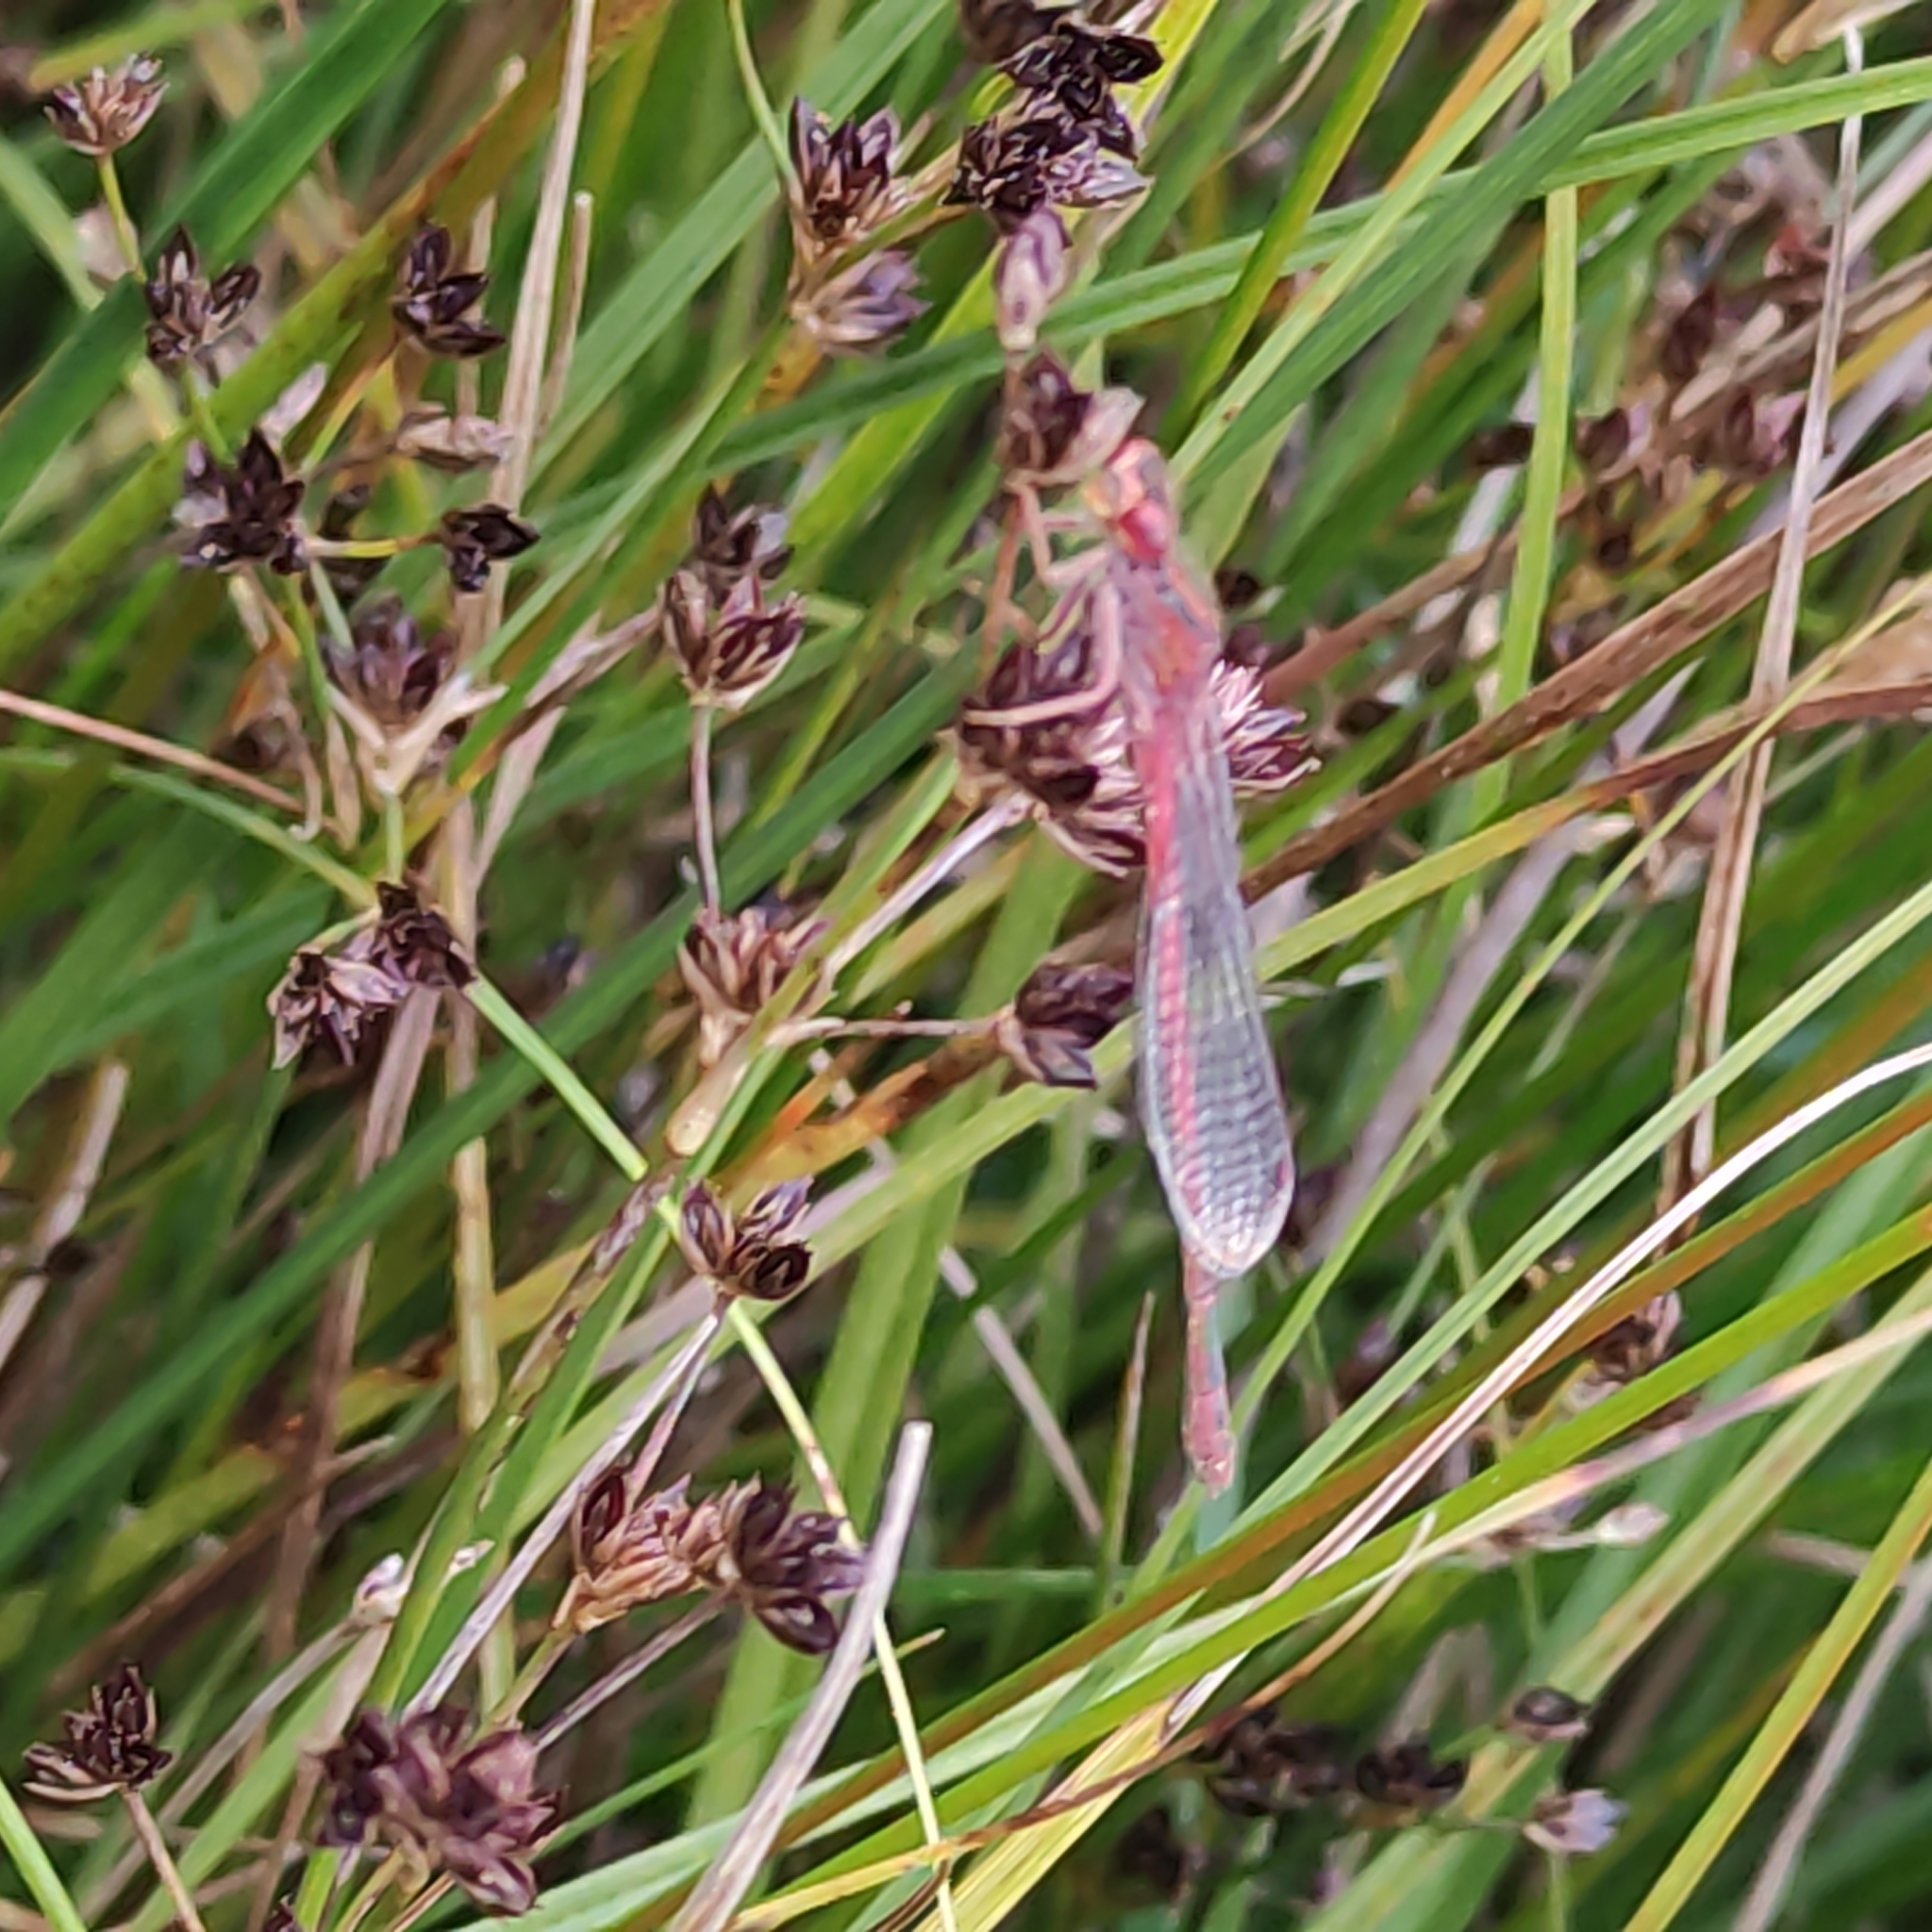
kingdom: Animalia
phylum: Arthropoda
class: Insecta
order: Odonata
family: Coenagrionidae
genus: Xanthocnemis
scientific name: Xanthocnemis zealandica
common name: Common redcoat damselfly
